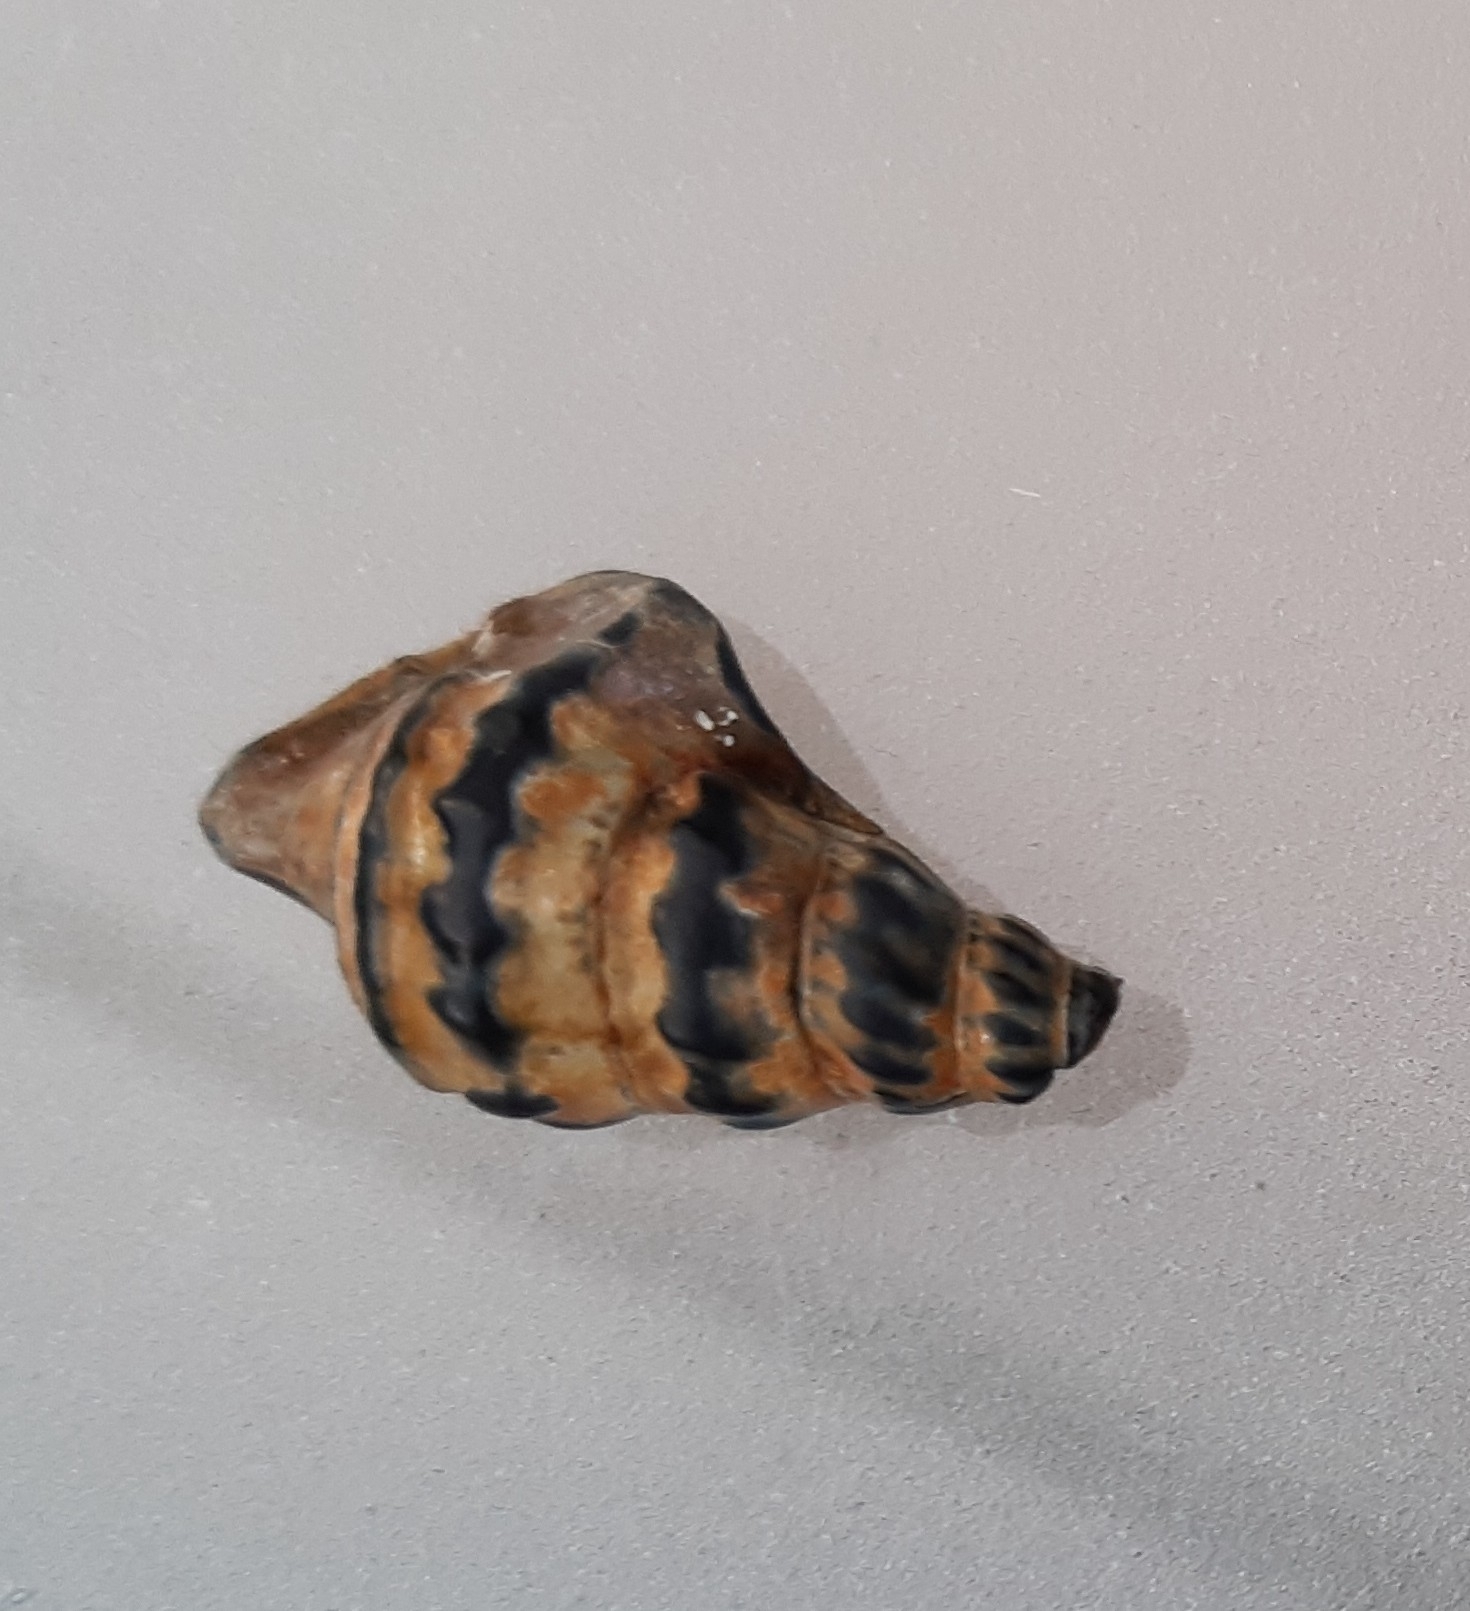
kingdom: Animalia
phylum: Mollusca
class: Gastropoda
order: Littorinimorpha
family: Aporrhaidae
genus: Aporrhais
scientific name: Aporrhais pespelecani
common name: Common pelican’s foot
